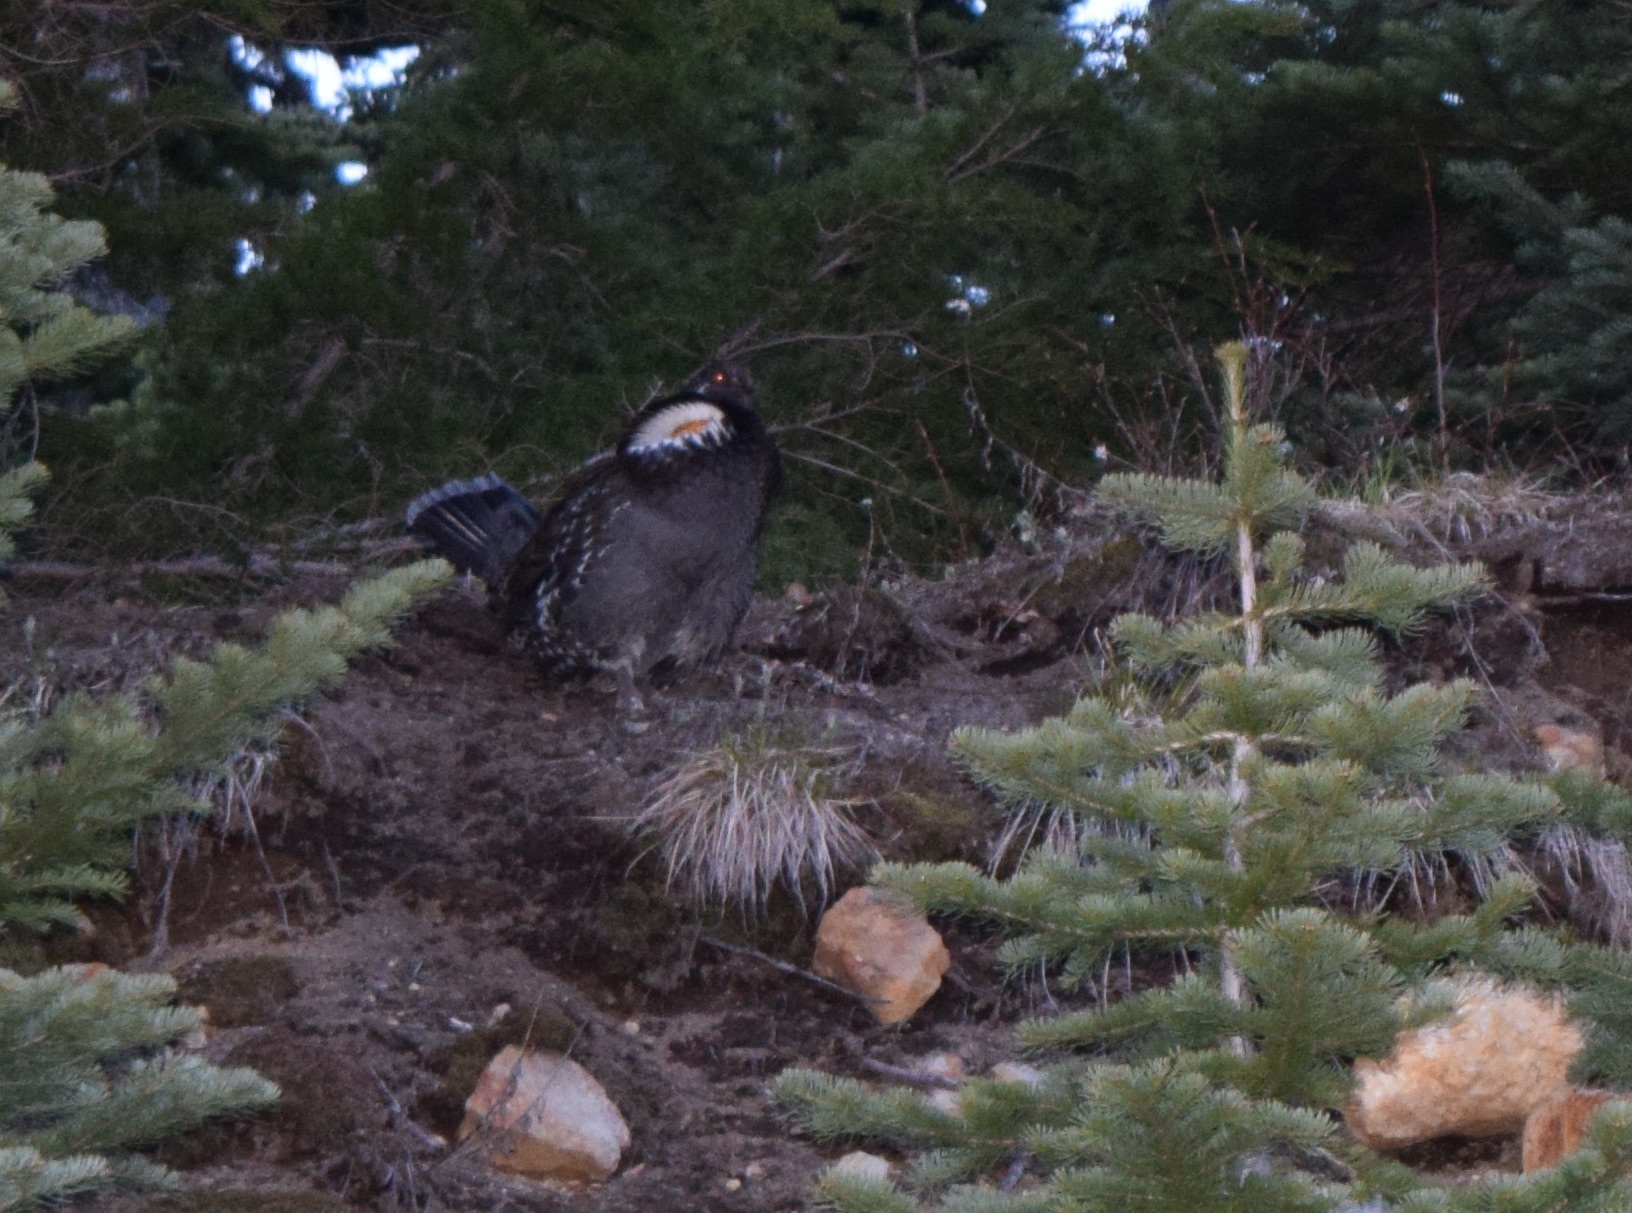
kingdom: Animalia
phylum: Chordata
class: Aves
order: Galliformes
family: Phasianidae
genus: Dendragapus
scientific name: Dendragapus fuliginosus
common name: Sooty grouse
